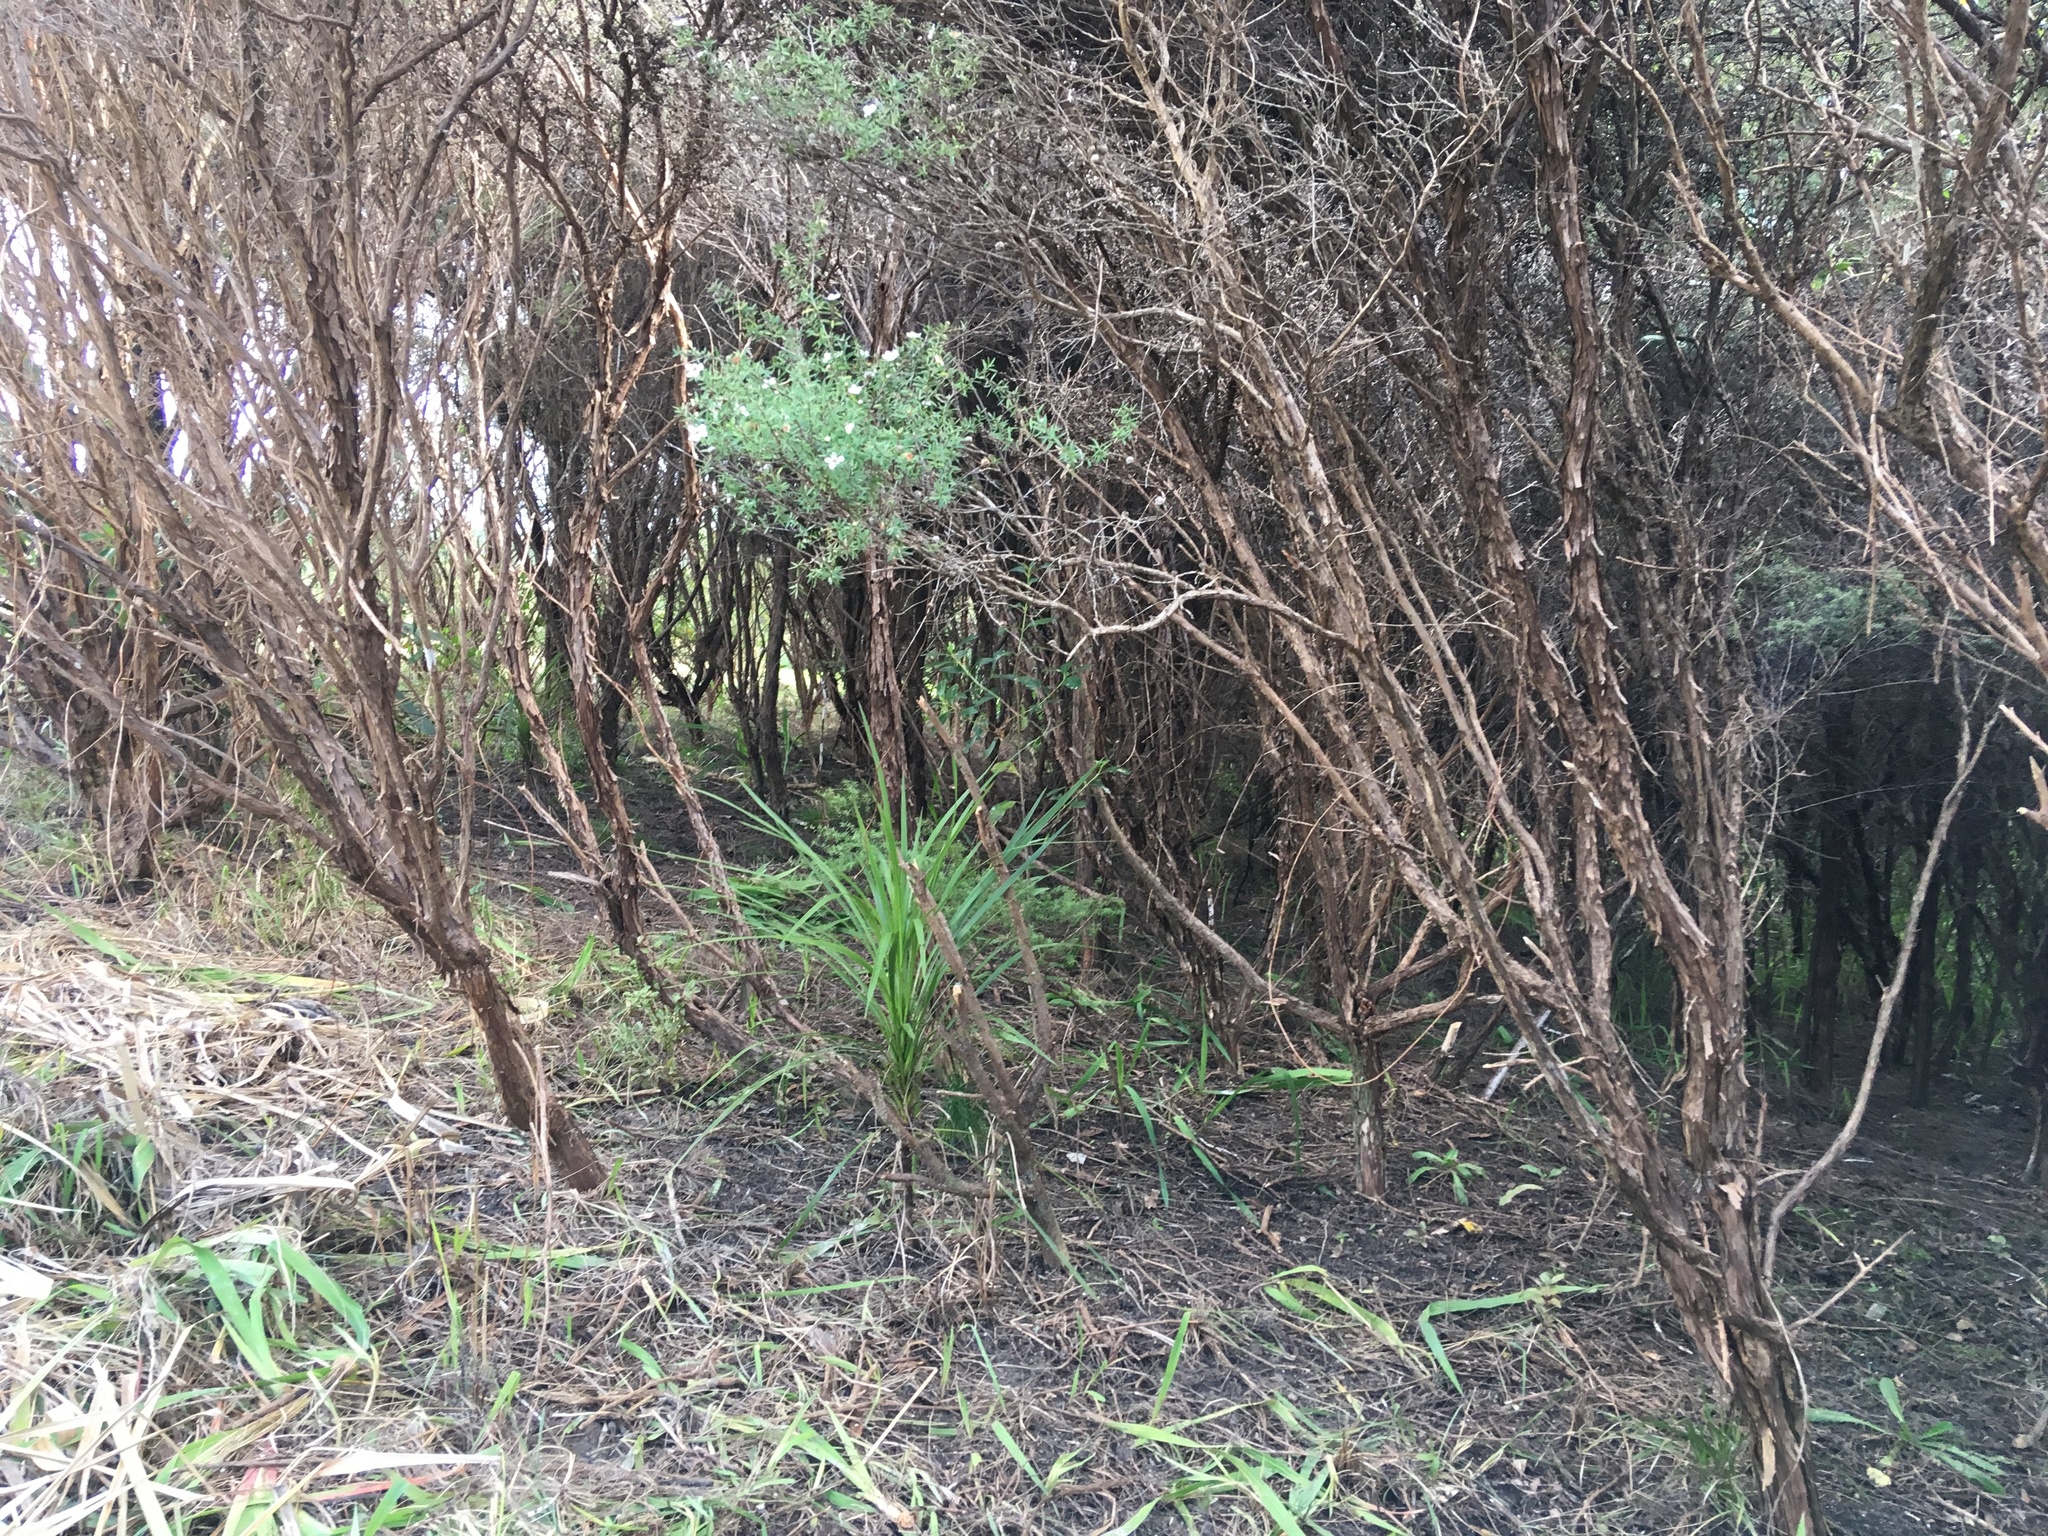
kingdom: Plantae
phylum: Tracheophyta
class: Magnoliopsida
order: Myrtales
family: Myrtaceae
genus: Leptospermum
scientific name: Leptospermum scoparium
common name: Broom tea-tree
